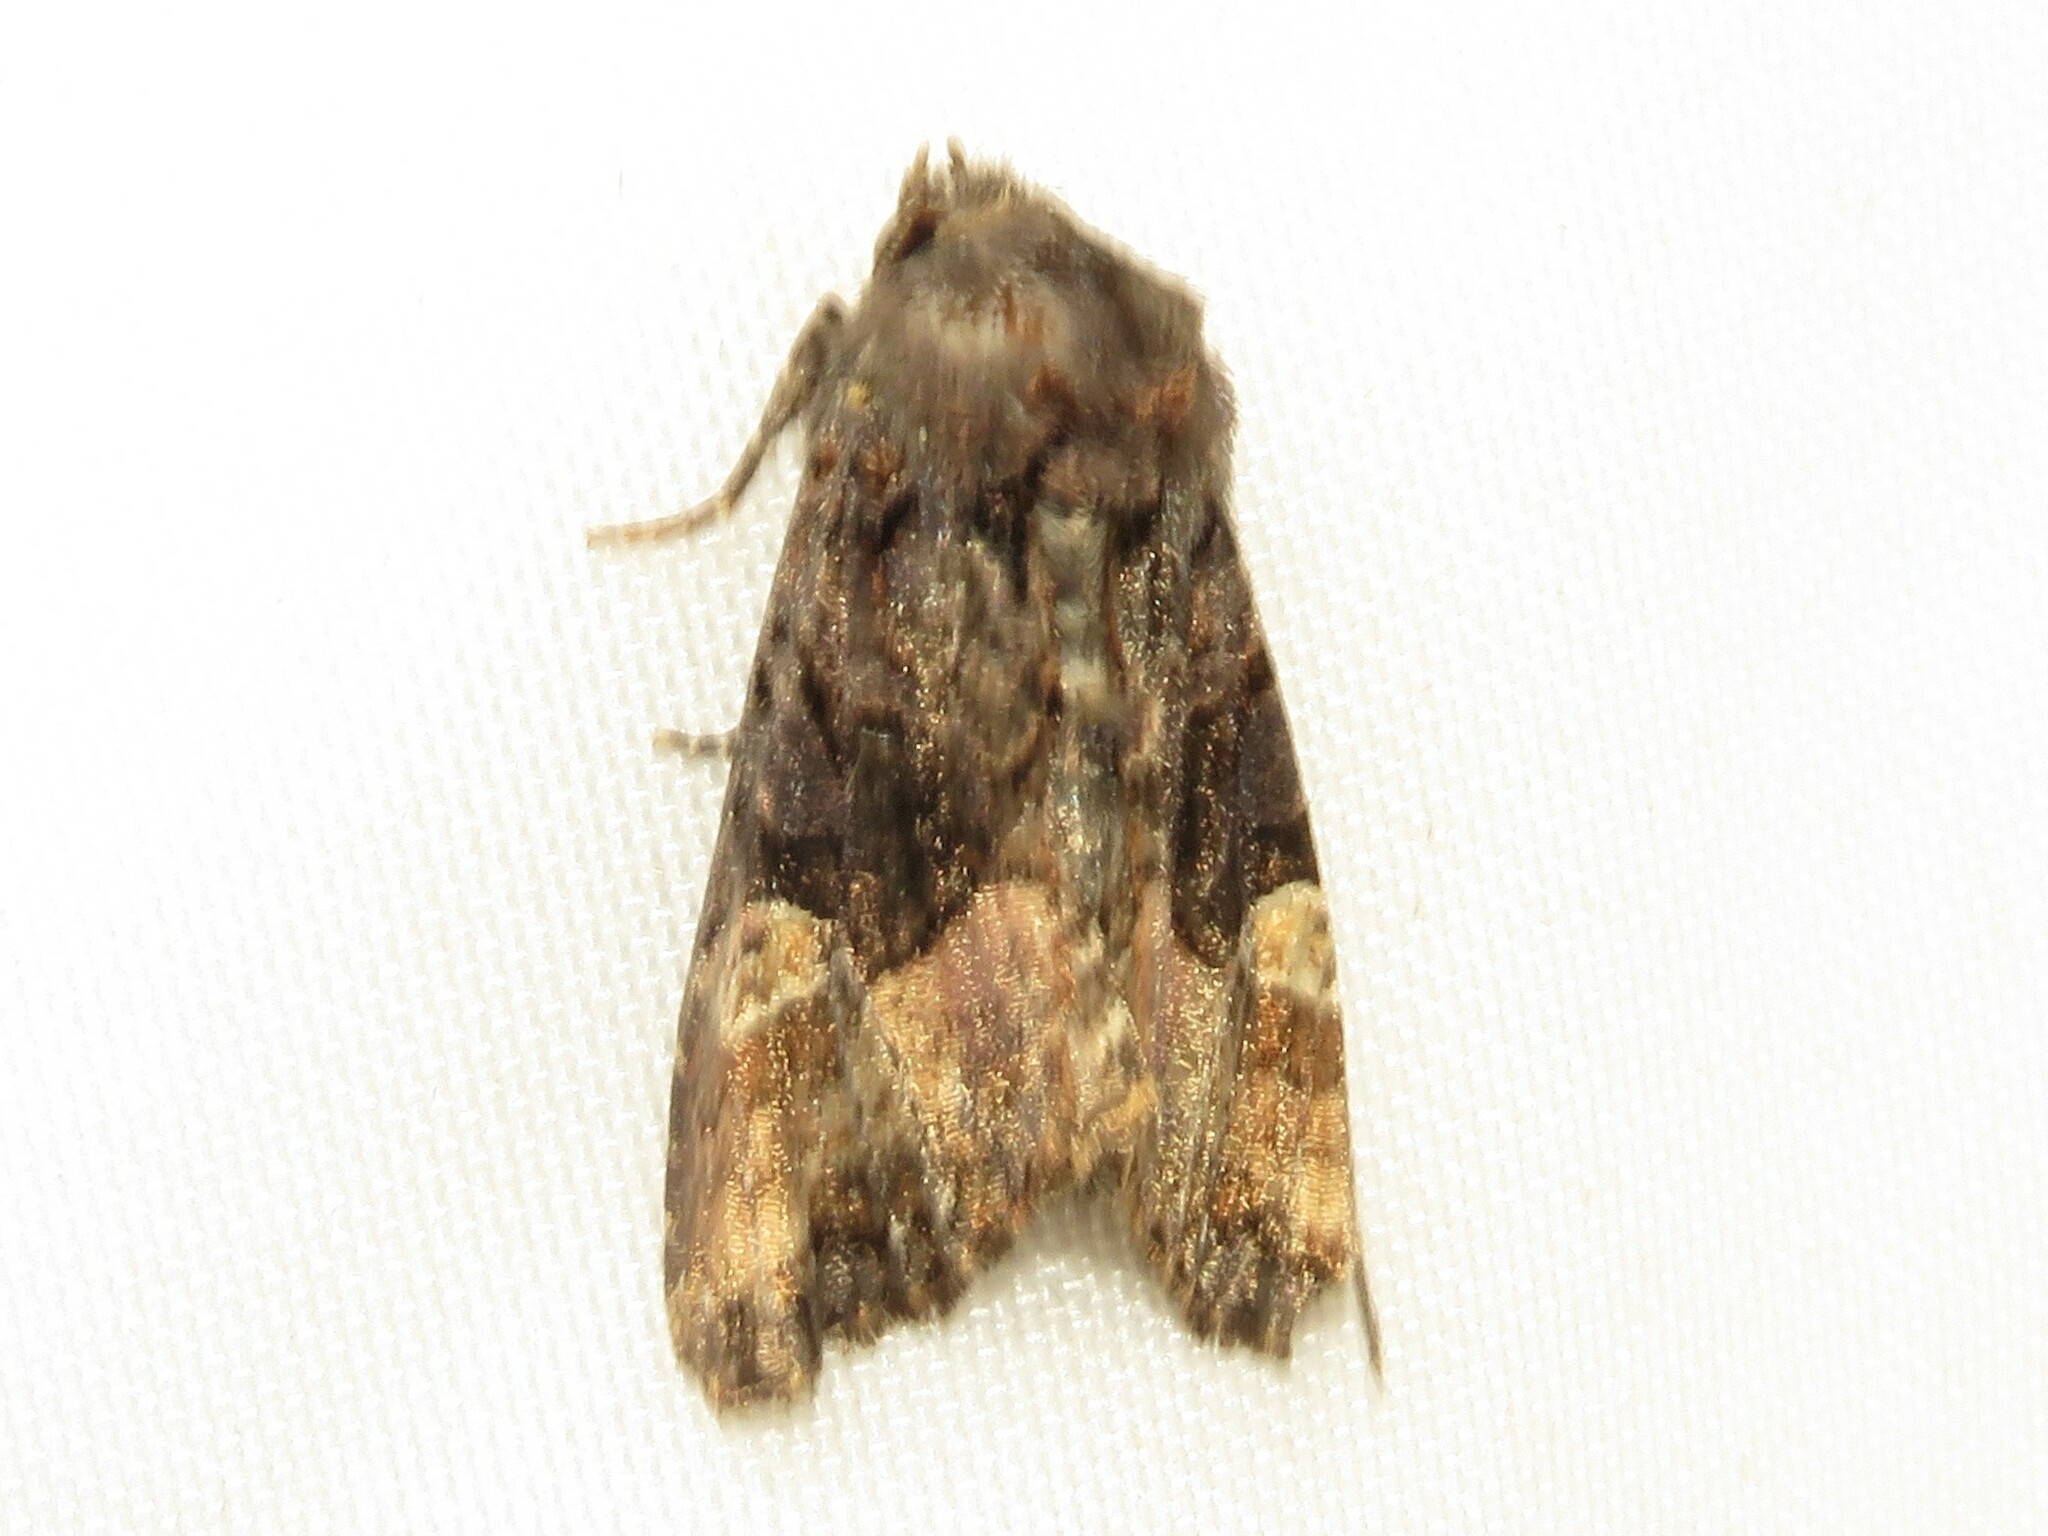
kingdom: Animalia
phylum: Arthropoda
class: Insecta
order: Lepidoptera
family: Noctuidae
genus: Euplexia
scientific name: Euplexia benesimilis
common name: American angle shades
